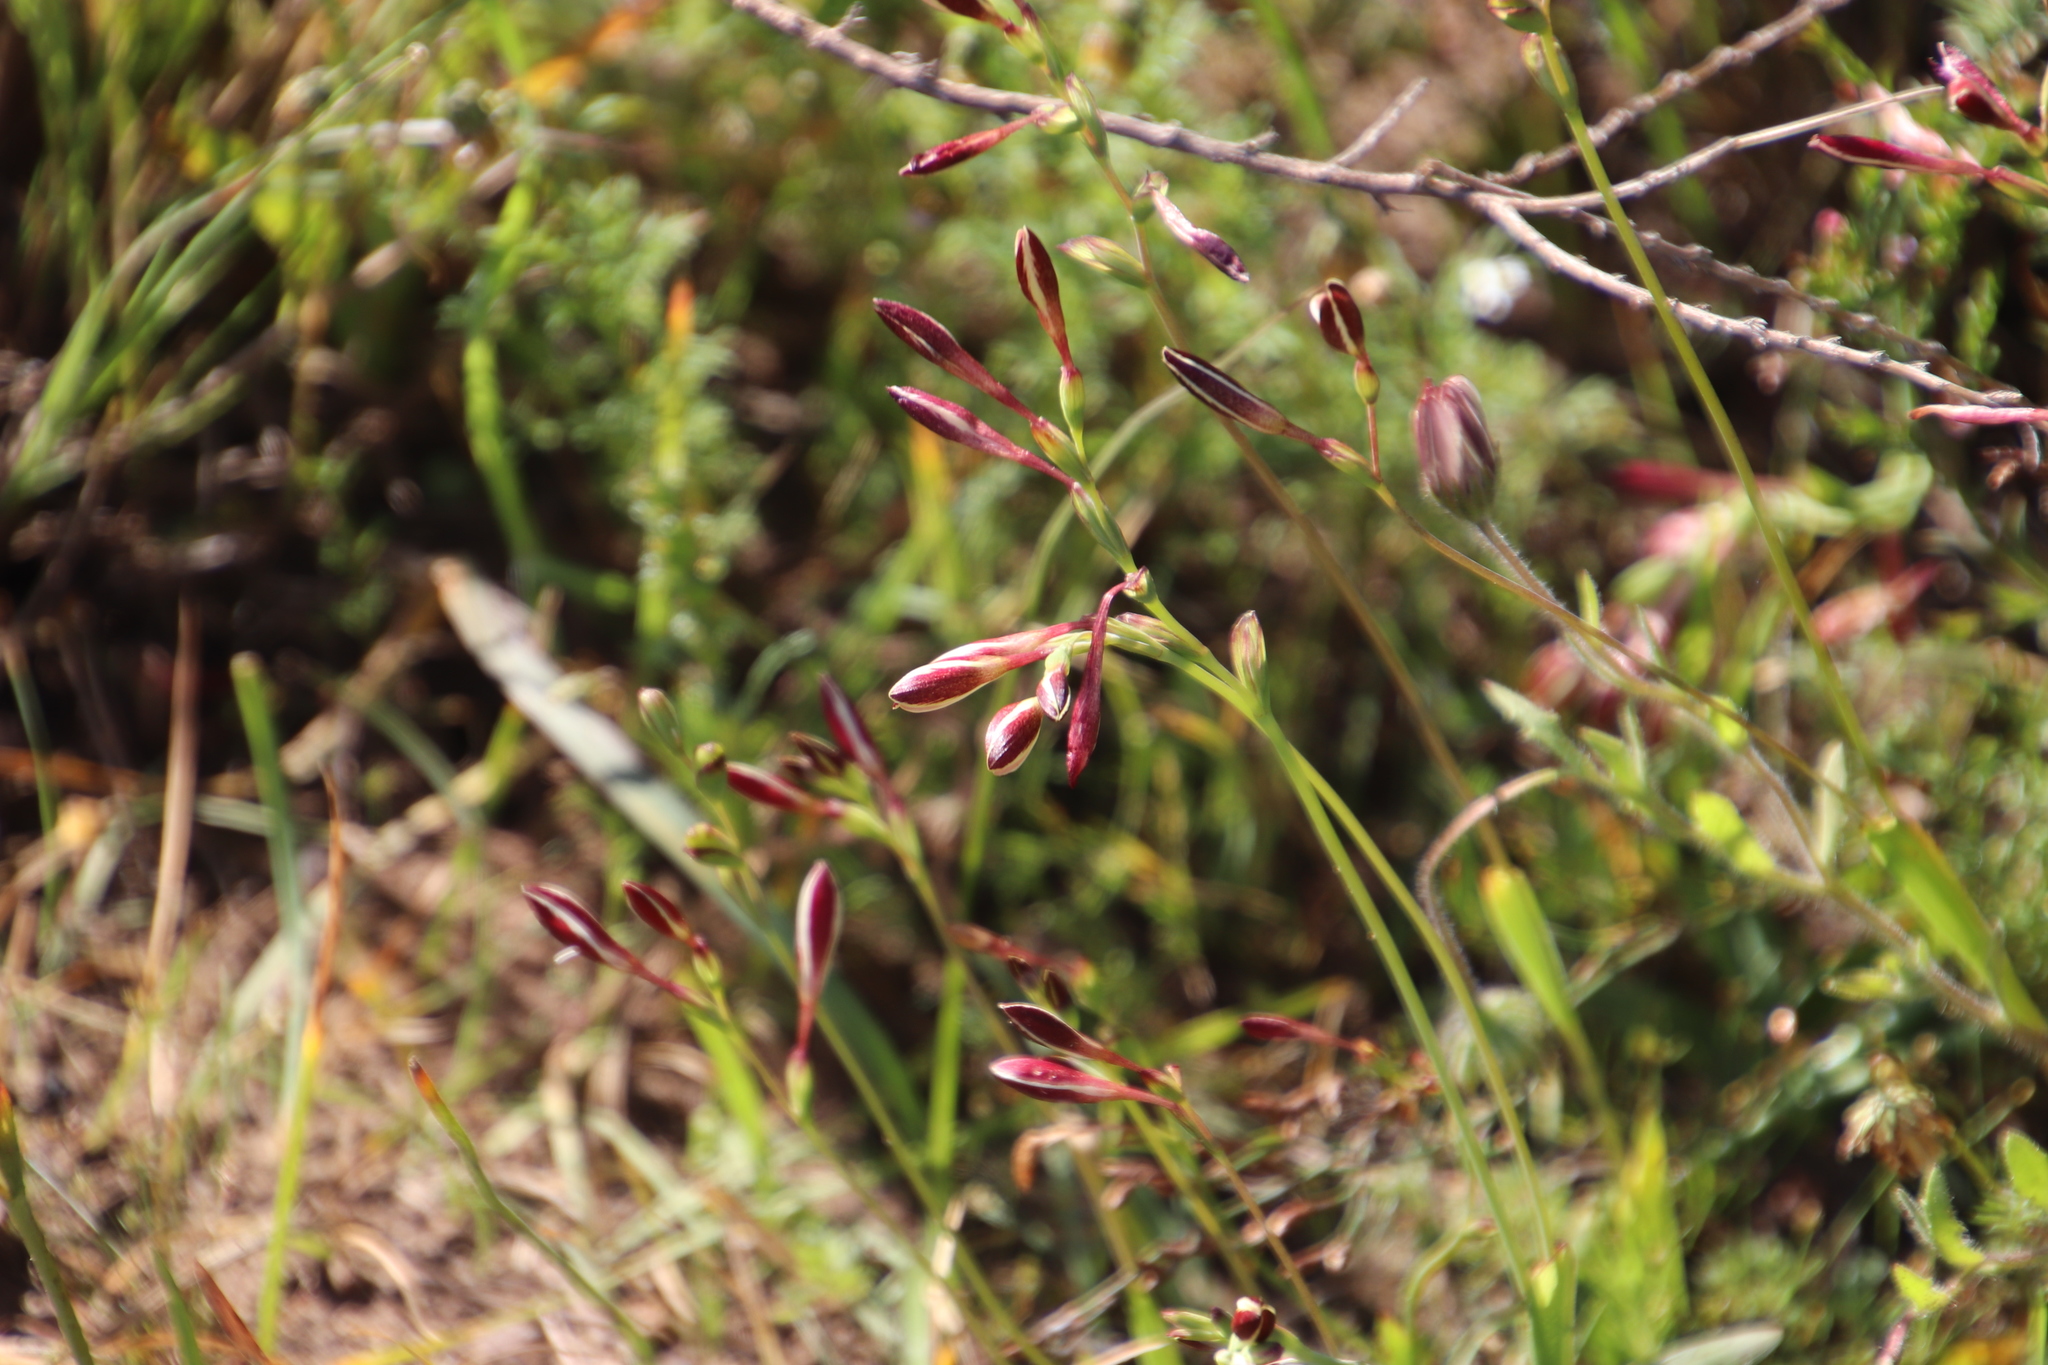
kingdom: Plantae
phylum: Tracheophyta
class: Liliopsida
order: Asparagales
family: Iridaceae
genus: Hesperantha
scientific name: Hesperantha falcata
